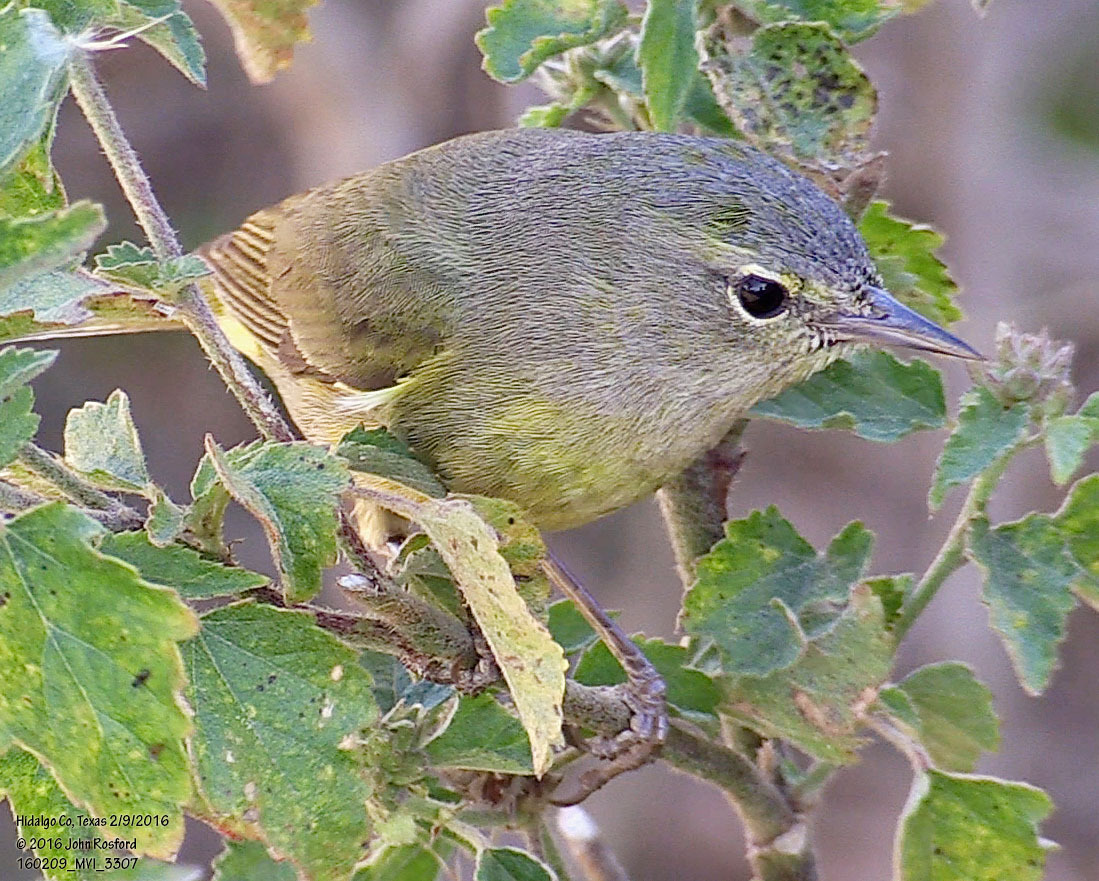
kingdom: Animalia
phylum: Chordata
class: Aves
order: Passeriformes
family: Parulidae
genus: Leiothlypis
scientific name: Leiothlypis celata
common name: Orange-crowned warbler
